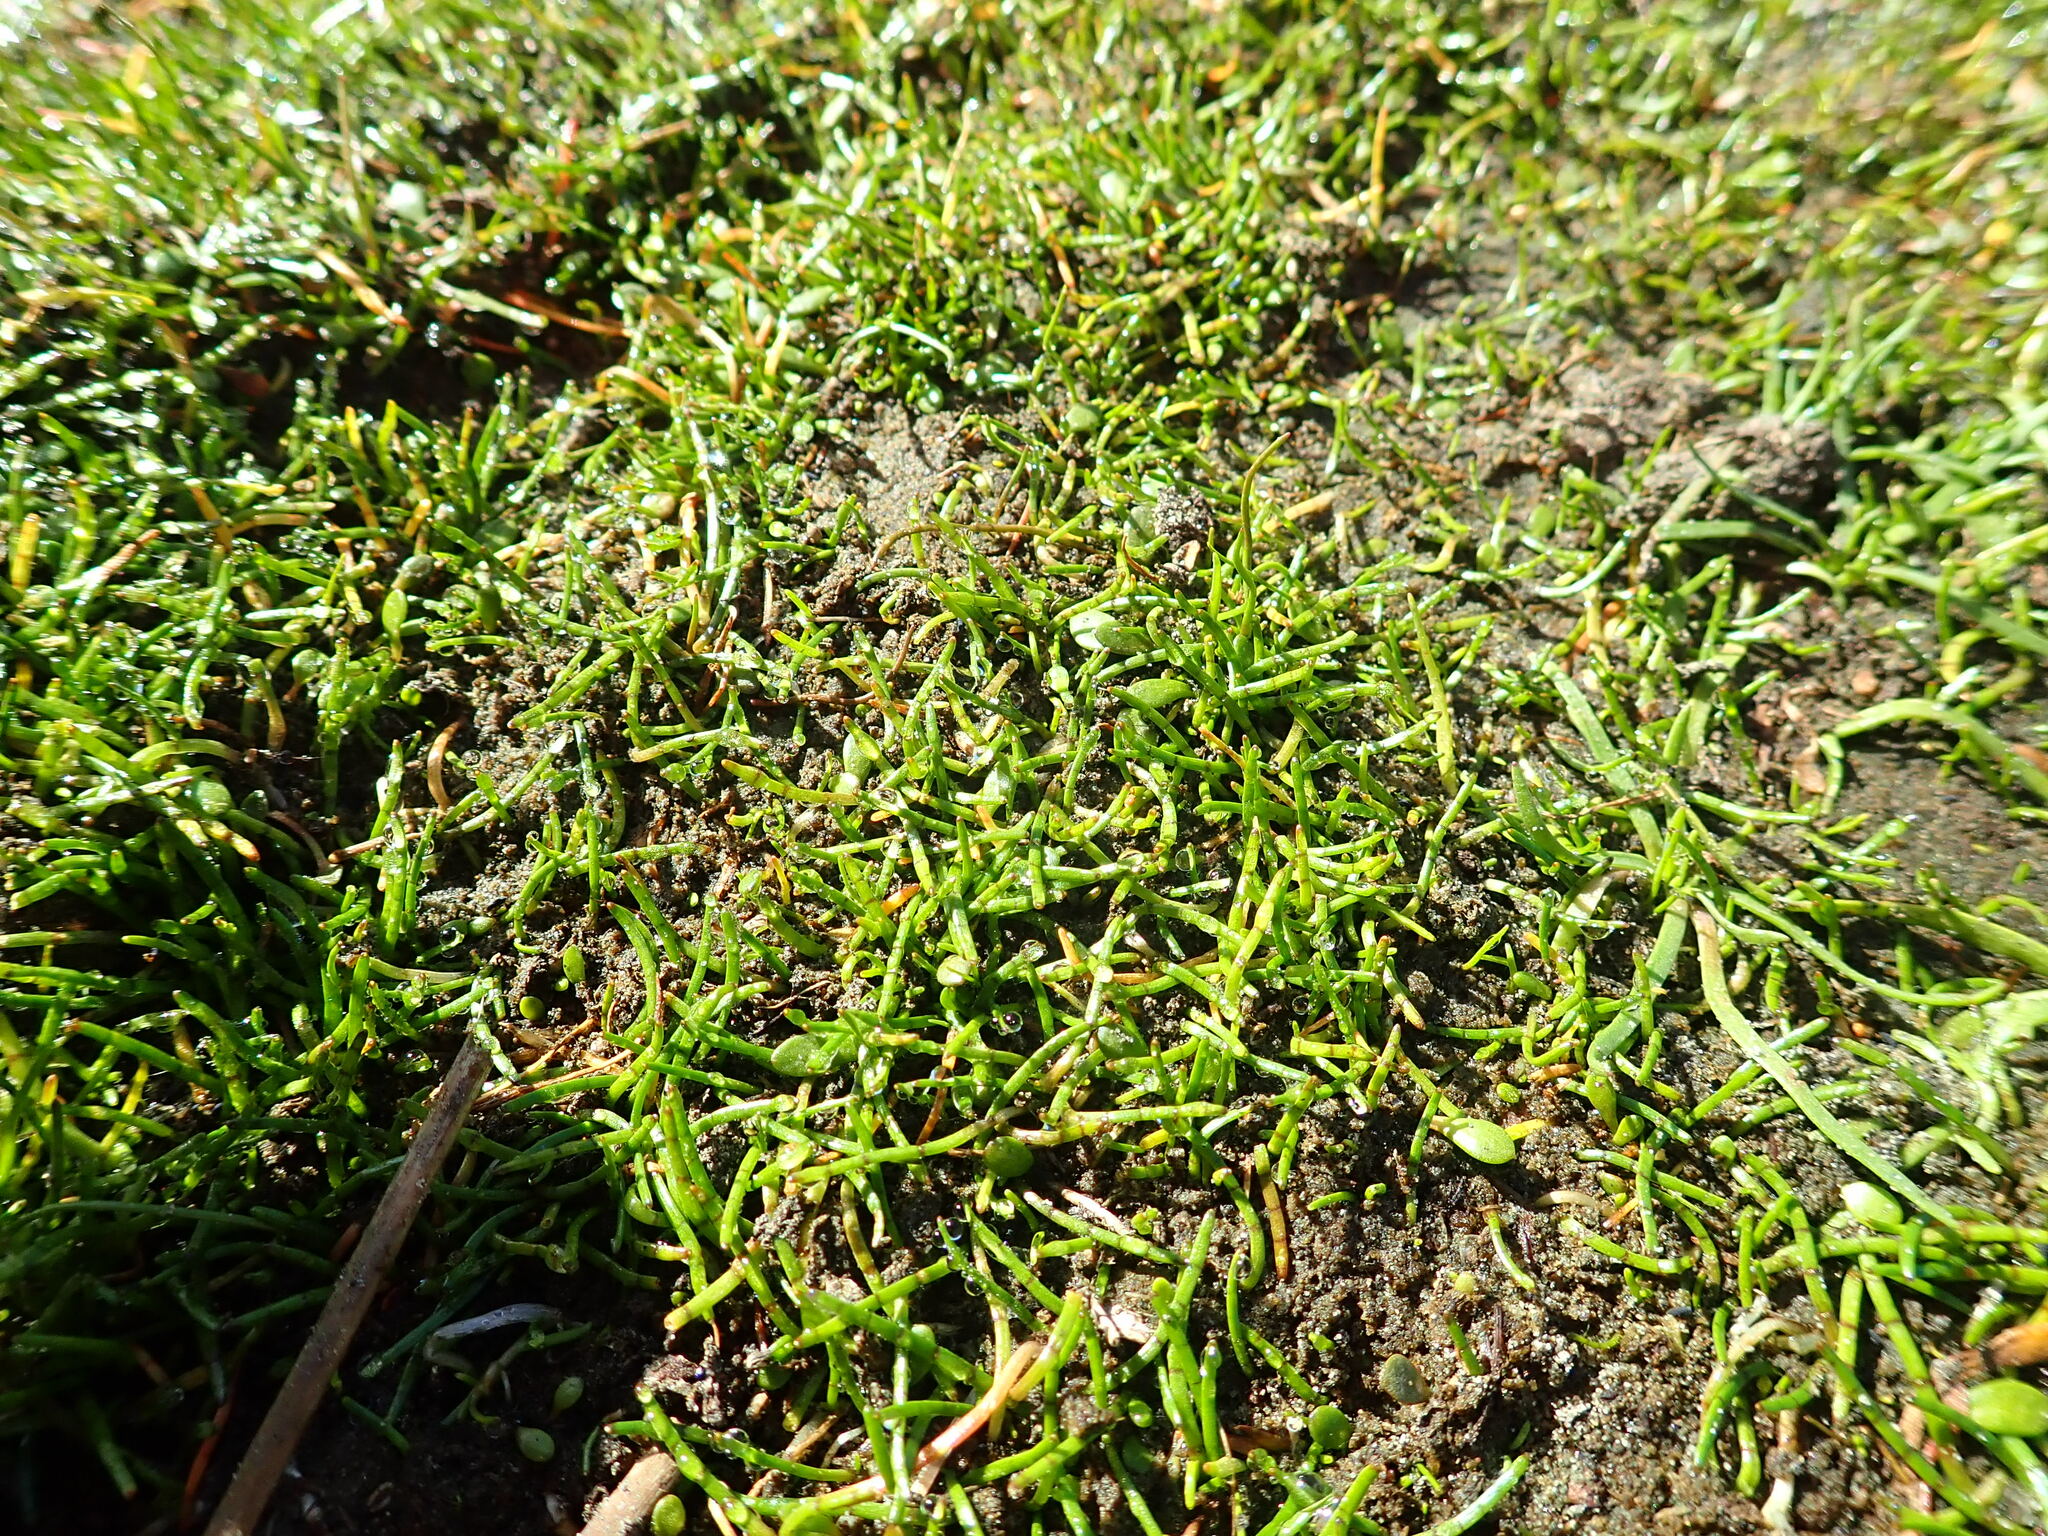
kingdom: Plantae
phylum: Tracheophyta
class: Magnoliopsida
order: Apiales
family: Apiaceae
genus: Lilaeopsis
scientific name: Lilaeopsis novae-zelandiae
